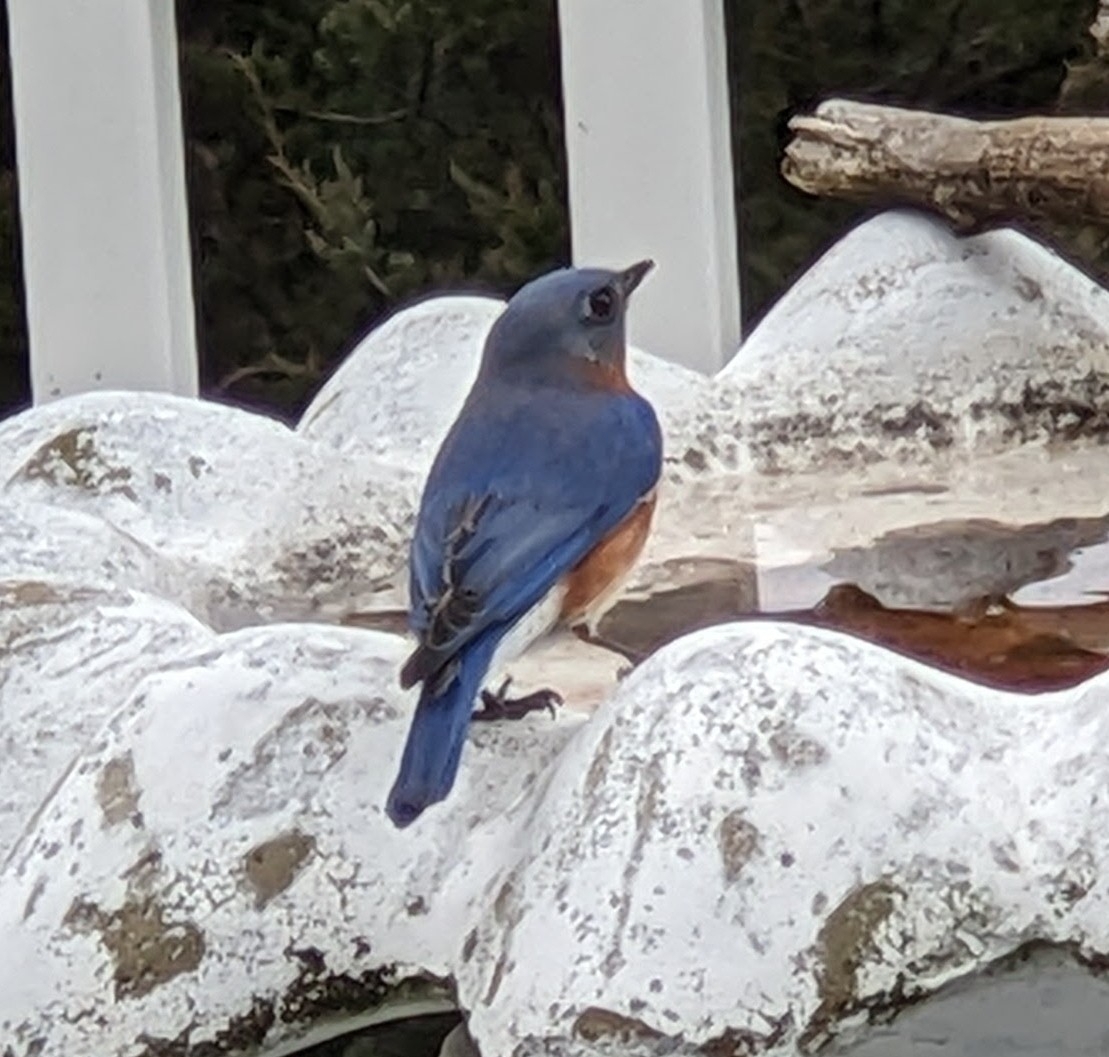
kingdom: Animalia
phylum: Chordata
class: Aves
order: Passeriformes
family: Turdidae
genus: Sialia
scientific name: Sialia sialis
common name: Eastern bluebird
